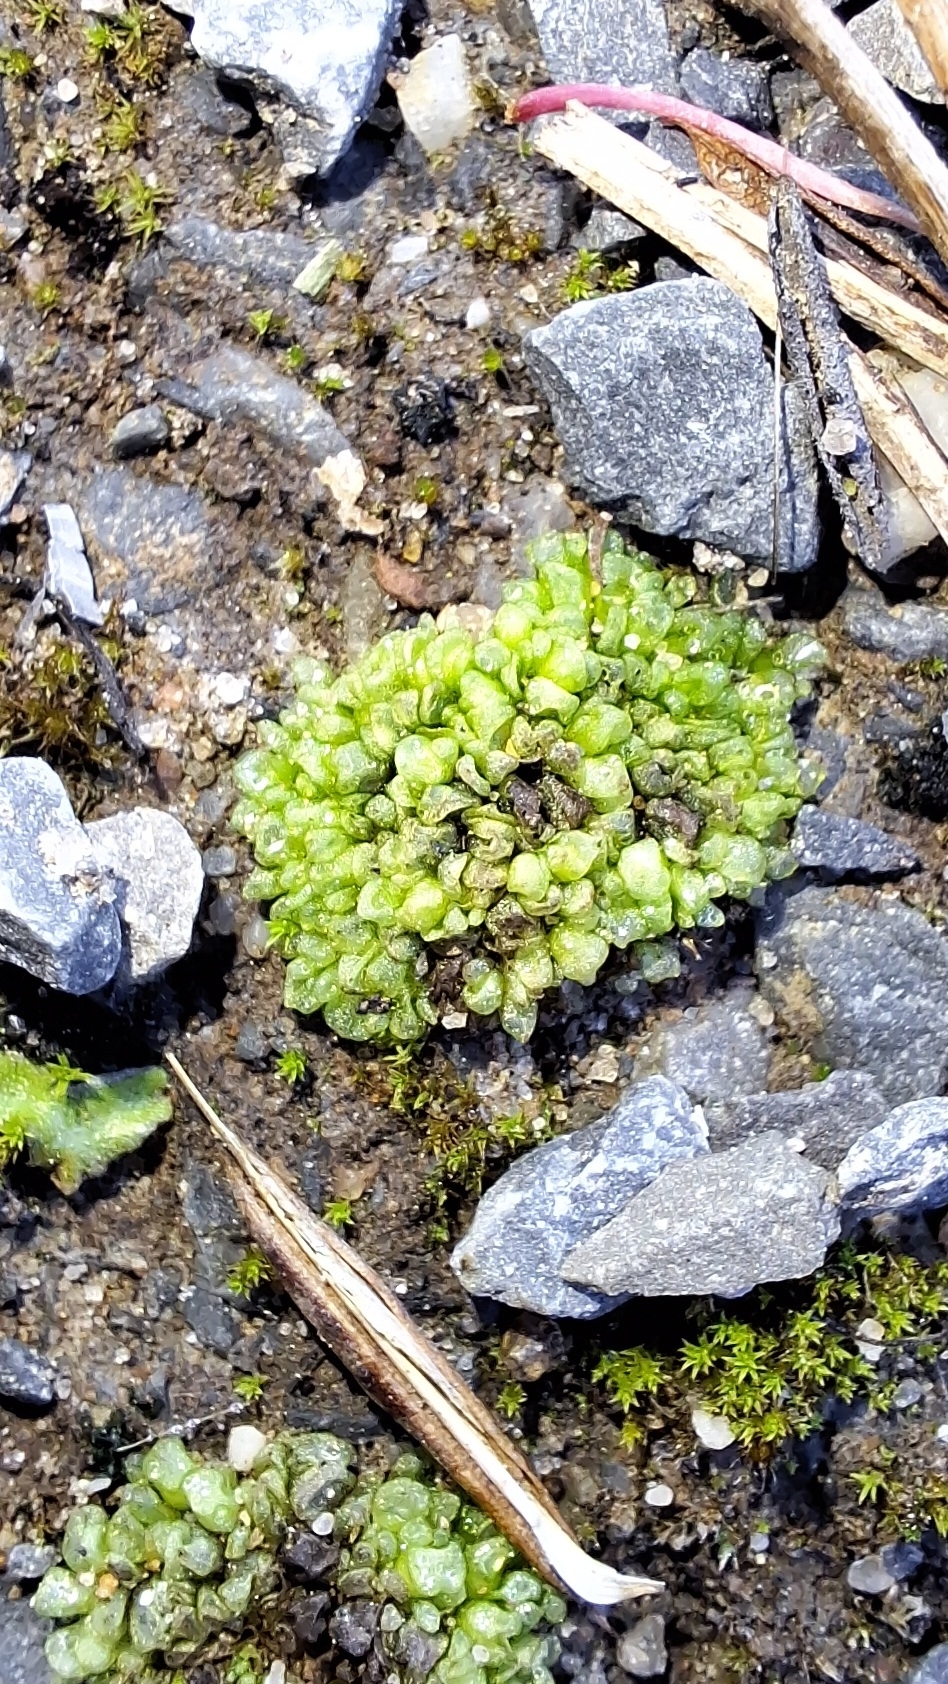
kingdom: Plantae
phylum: Marchantiophyta
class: Marchantiopsida
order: Sphaerocarpales
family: Sphaerocarpaceae
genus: Sphaerocarpos
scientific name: Sphaerocarpos texanus
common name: Texas balloonwort
